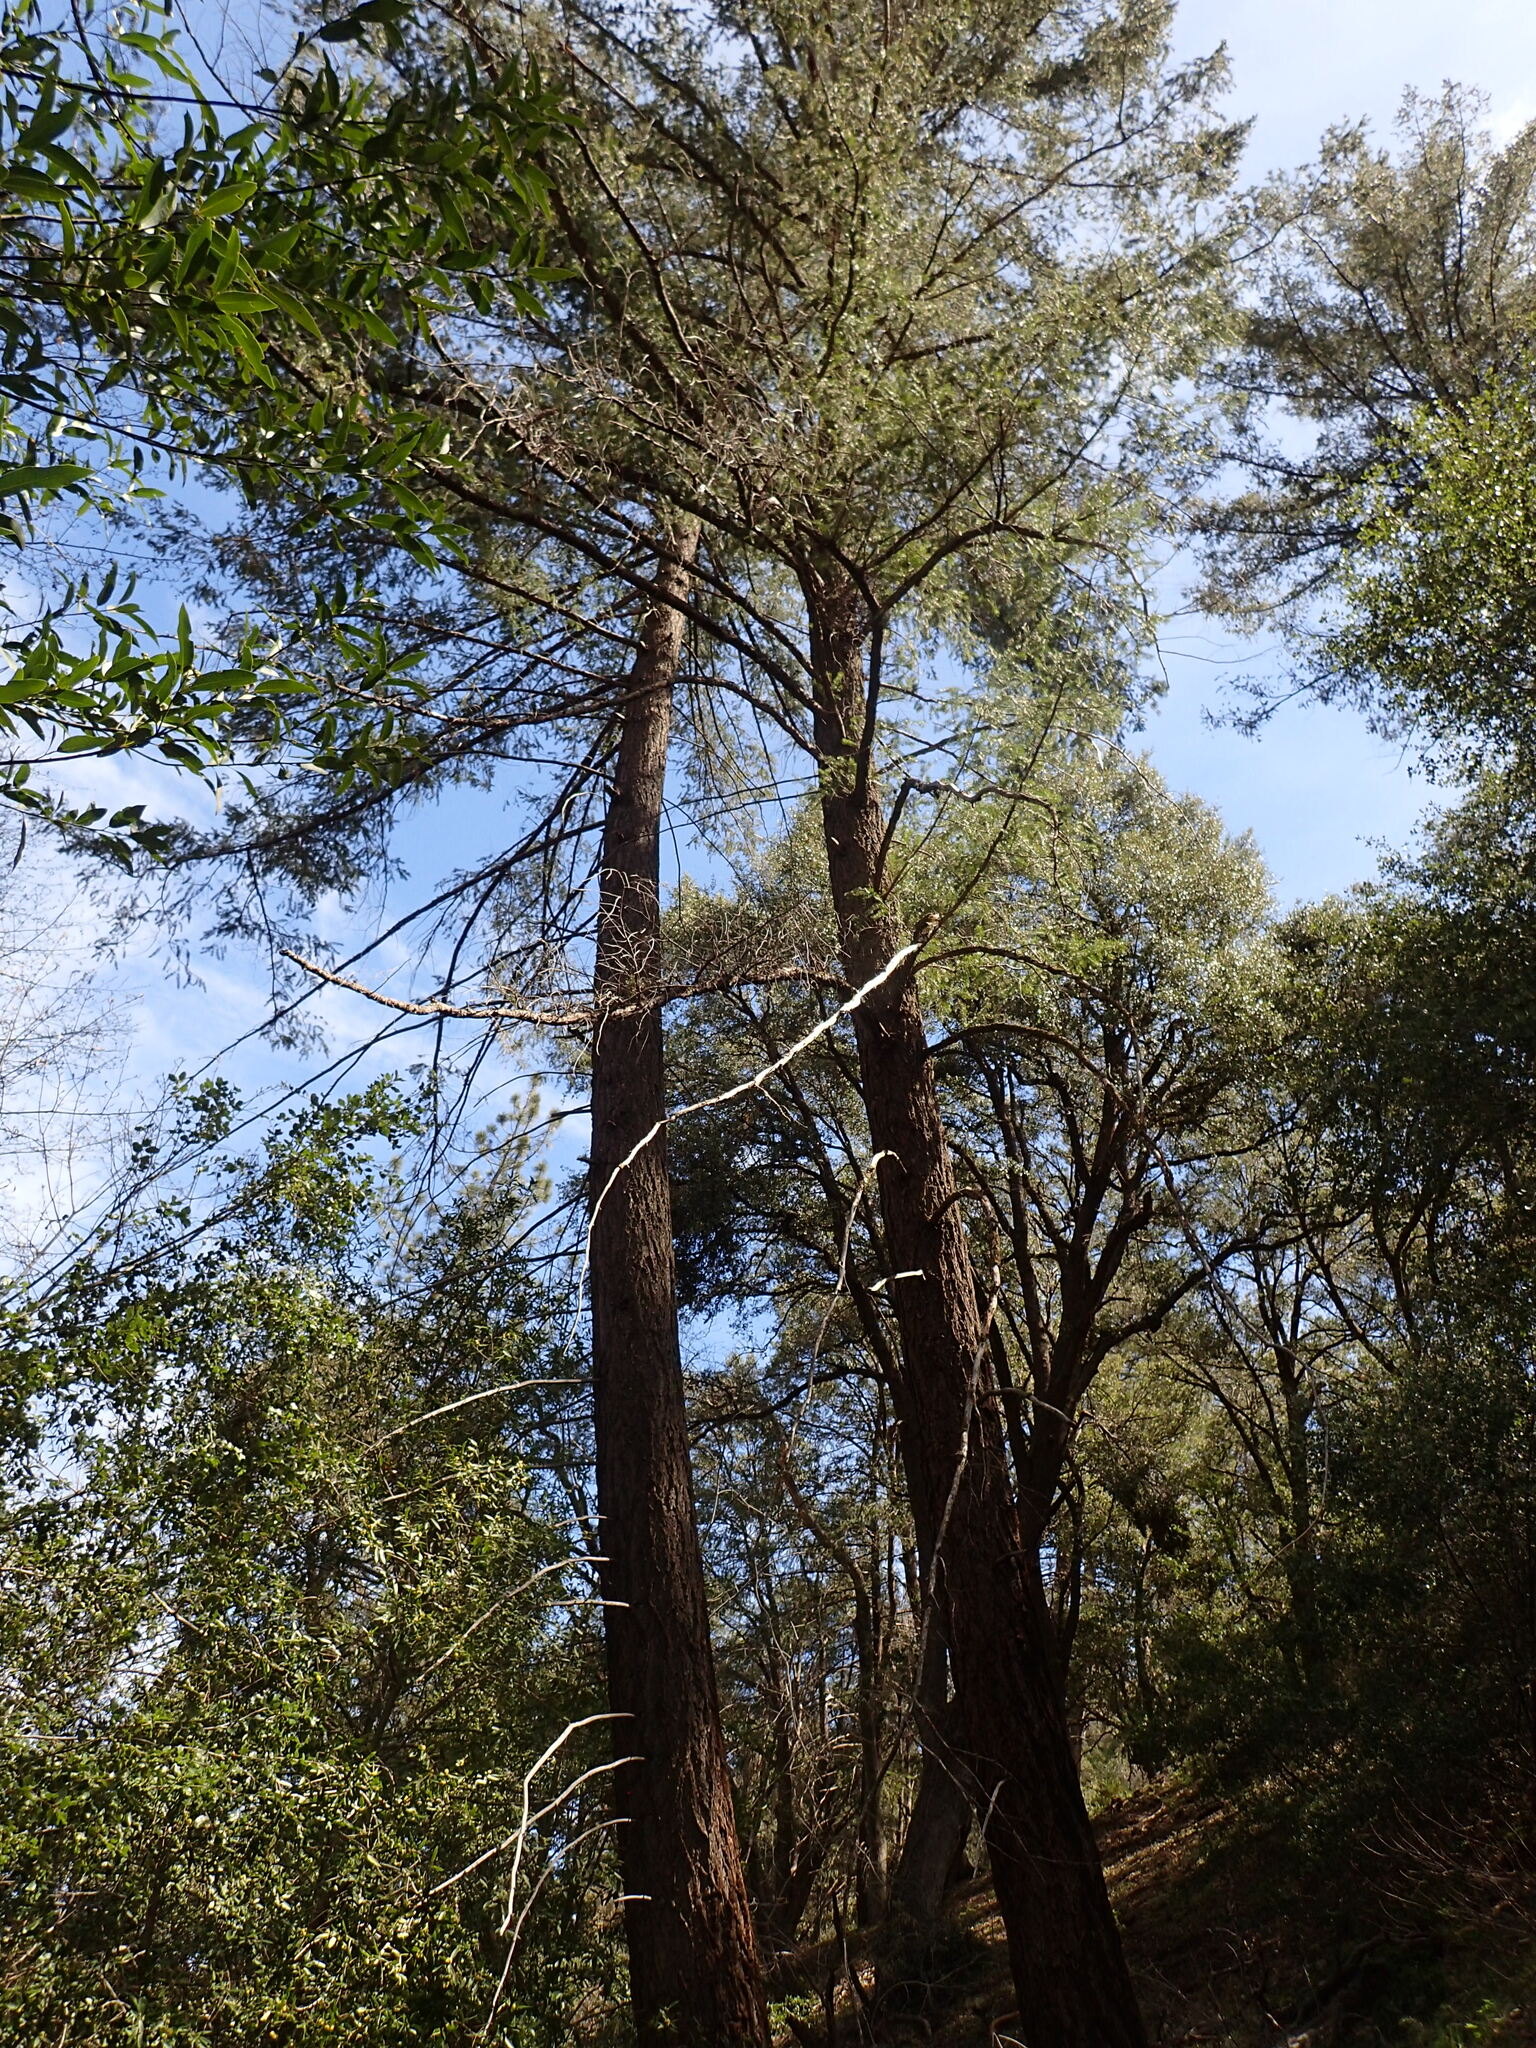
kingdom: Plantae
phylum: Tracheophyta
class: Pinopsida
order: Pinales
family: Pinaceae
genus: Pseudotsuga
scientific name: Pseudotsuga macrocarpa
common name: Big-cone douglas-fir
